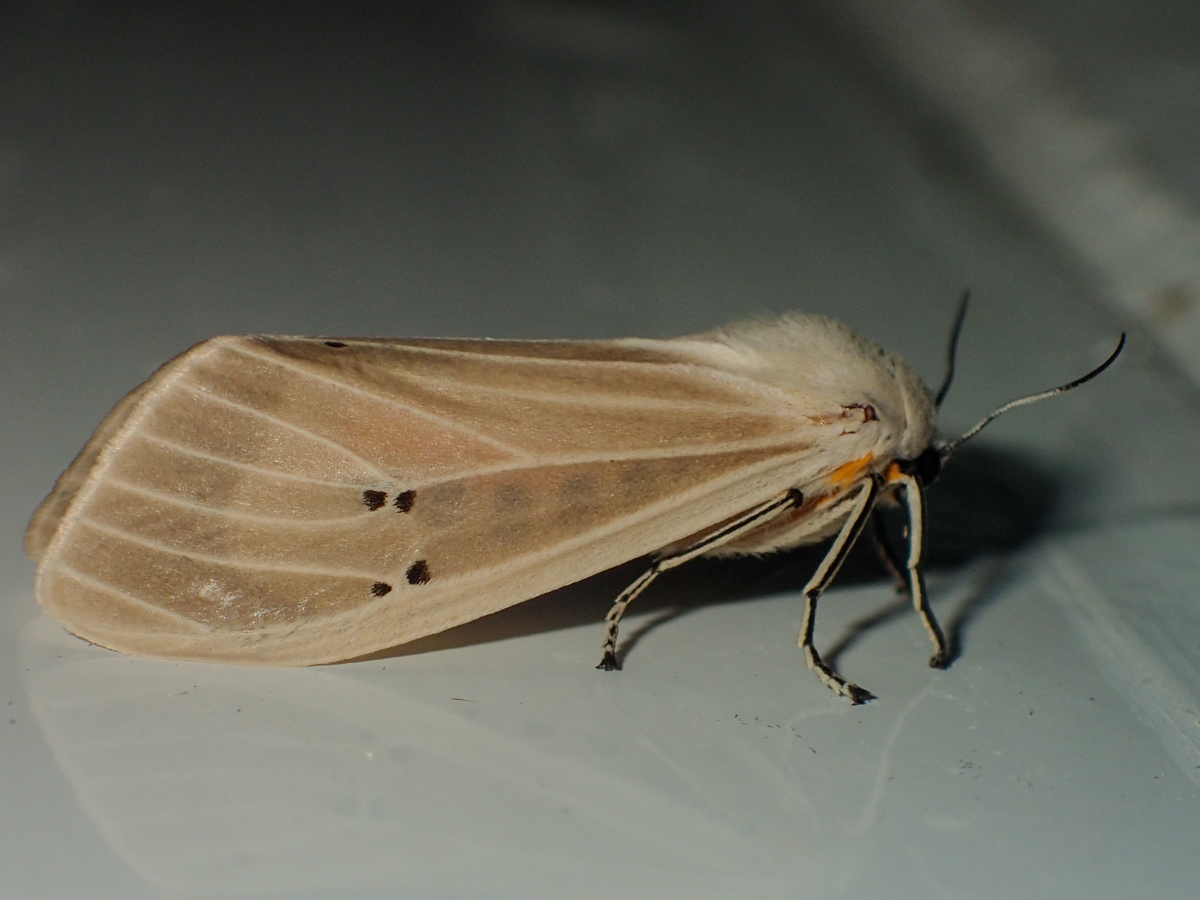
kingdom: Animalia
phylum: Arthropoda
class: Insecta
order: Lepidoptera
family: Erebidae
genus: Creatonotos
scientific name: Creatonotos transiens
